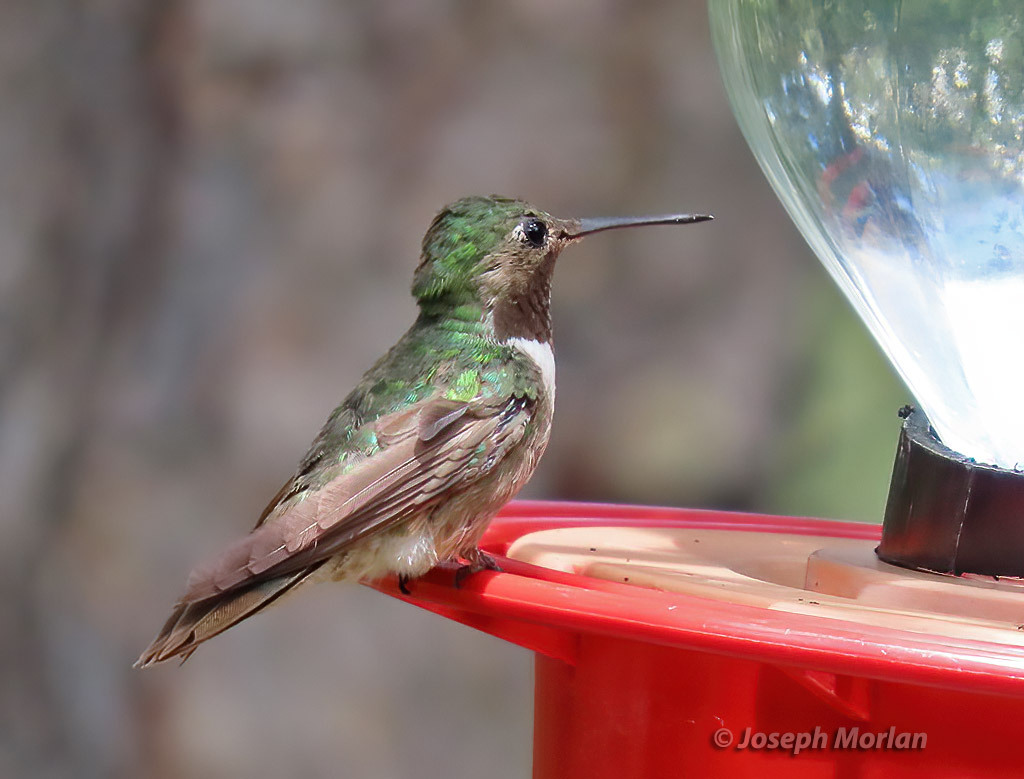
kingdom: Animalia
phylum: Chordata
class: Aves
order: Apodiformes
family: Trochilidae
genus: Selasphorus
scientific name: Selasphorus platycercus
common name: Broad-tailed hummingbird
